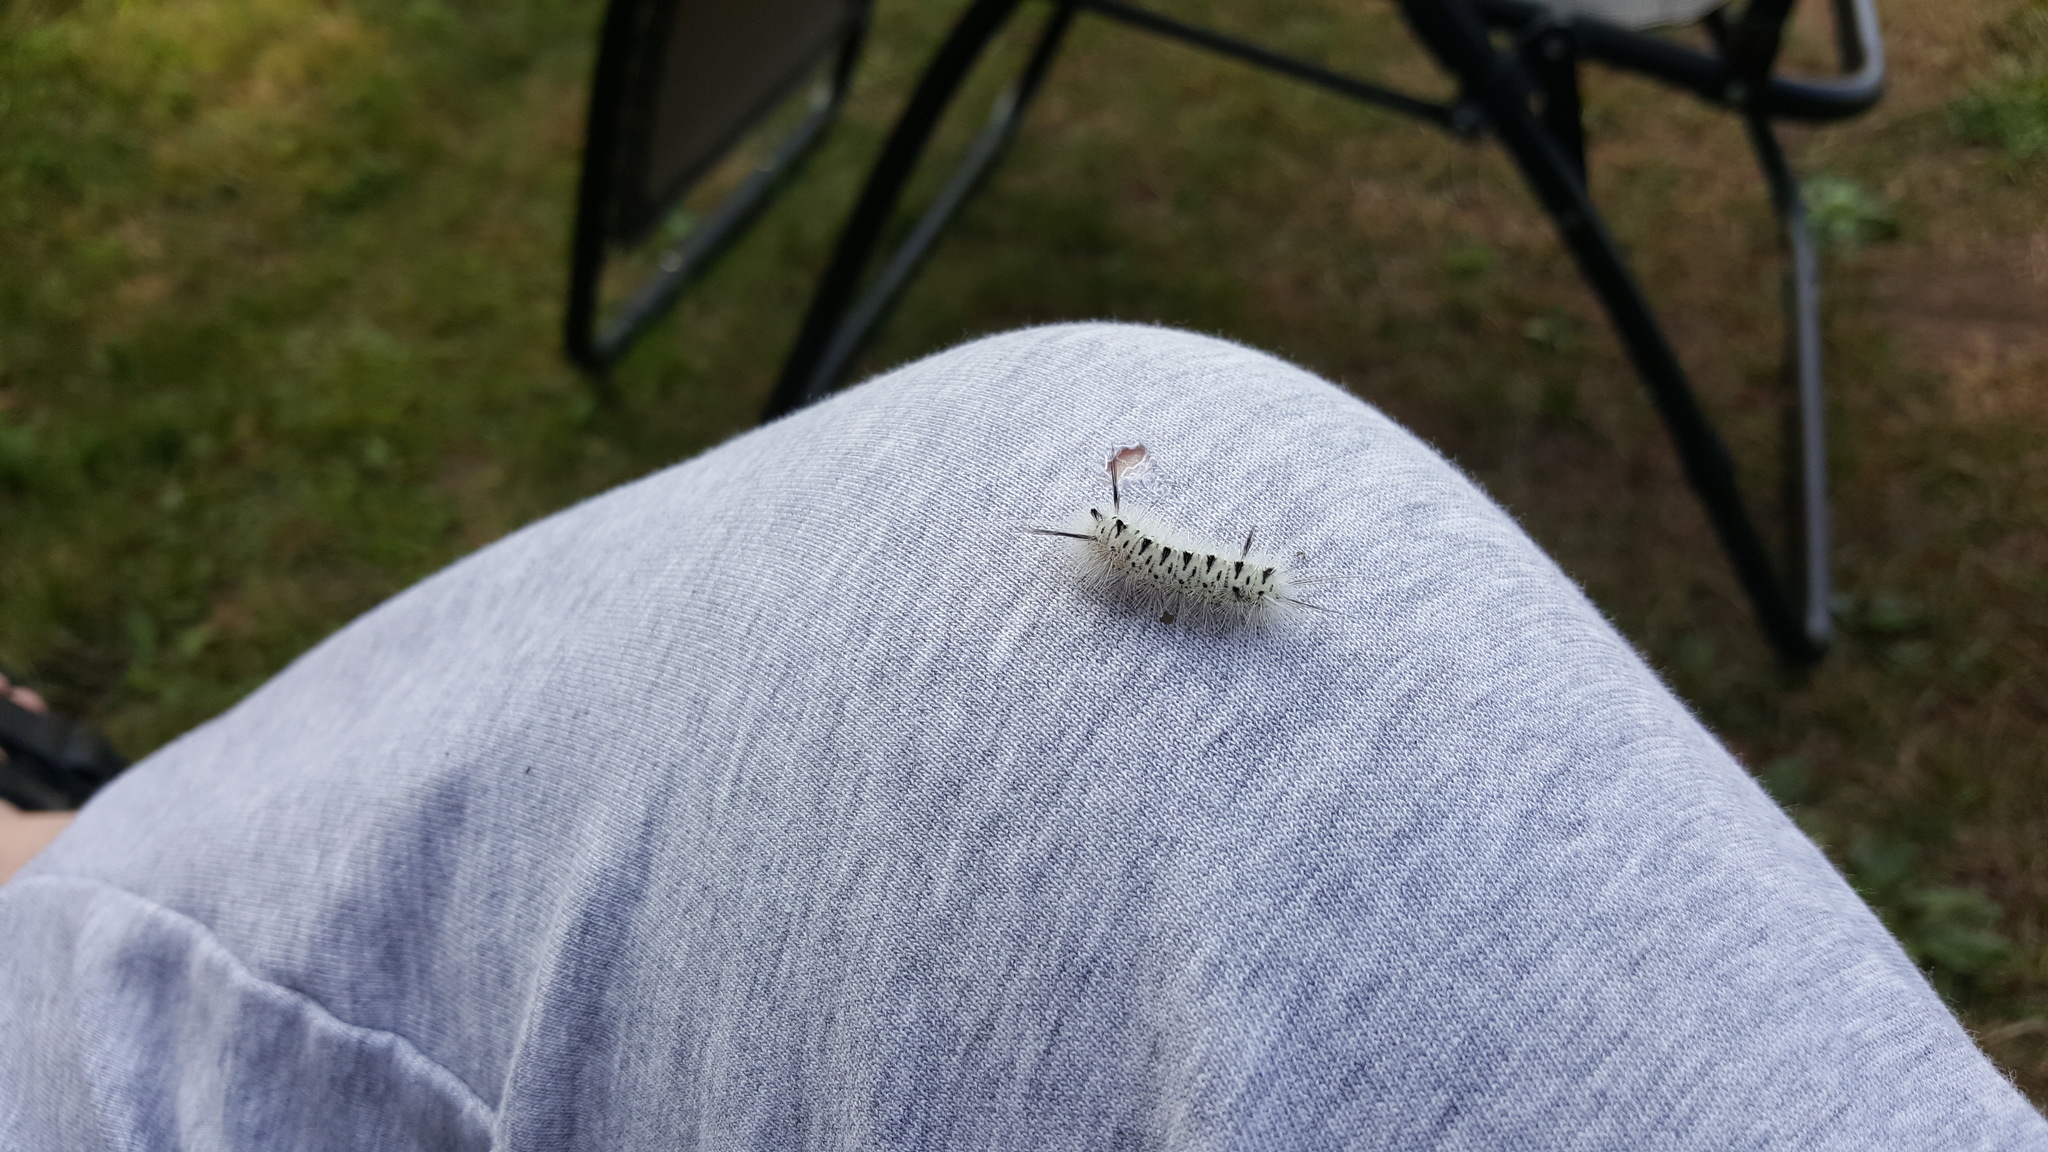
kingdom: Animalia
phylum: Arthropoda
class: Insecta
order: Lepidoptera
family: Erebidae
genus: Lophocampa
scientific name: Lophocampa caryae
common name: Hickory tussock moth
